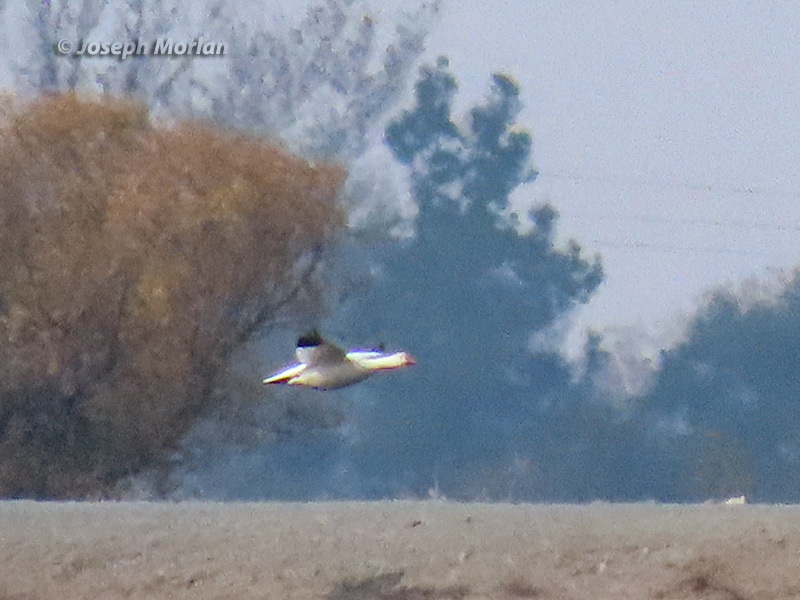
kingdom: Animalia
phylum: Chordata
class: Aves
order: Anseriformes
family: Anatidae
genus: Anser
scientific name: Anser caerulescens
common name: Snow goose
